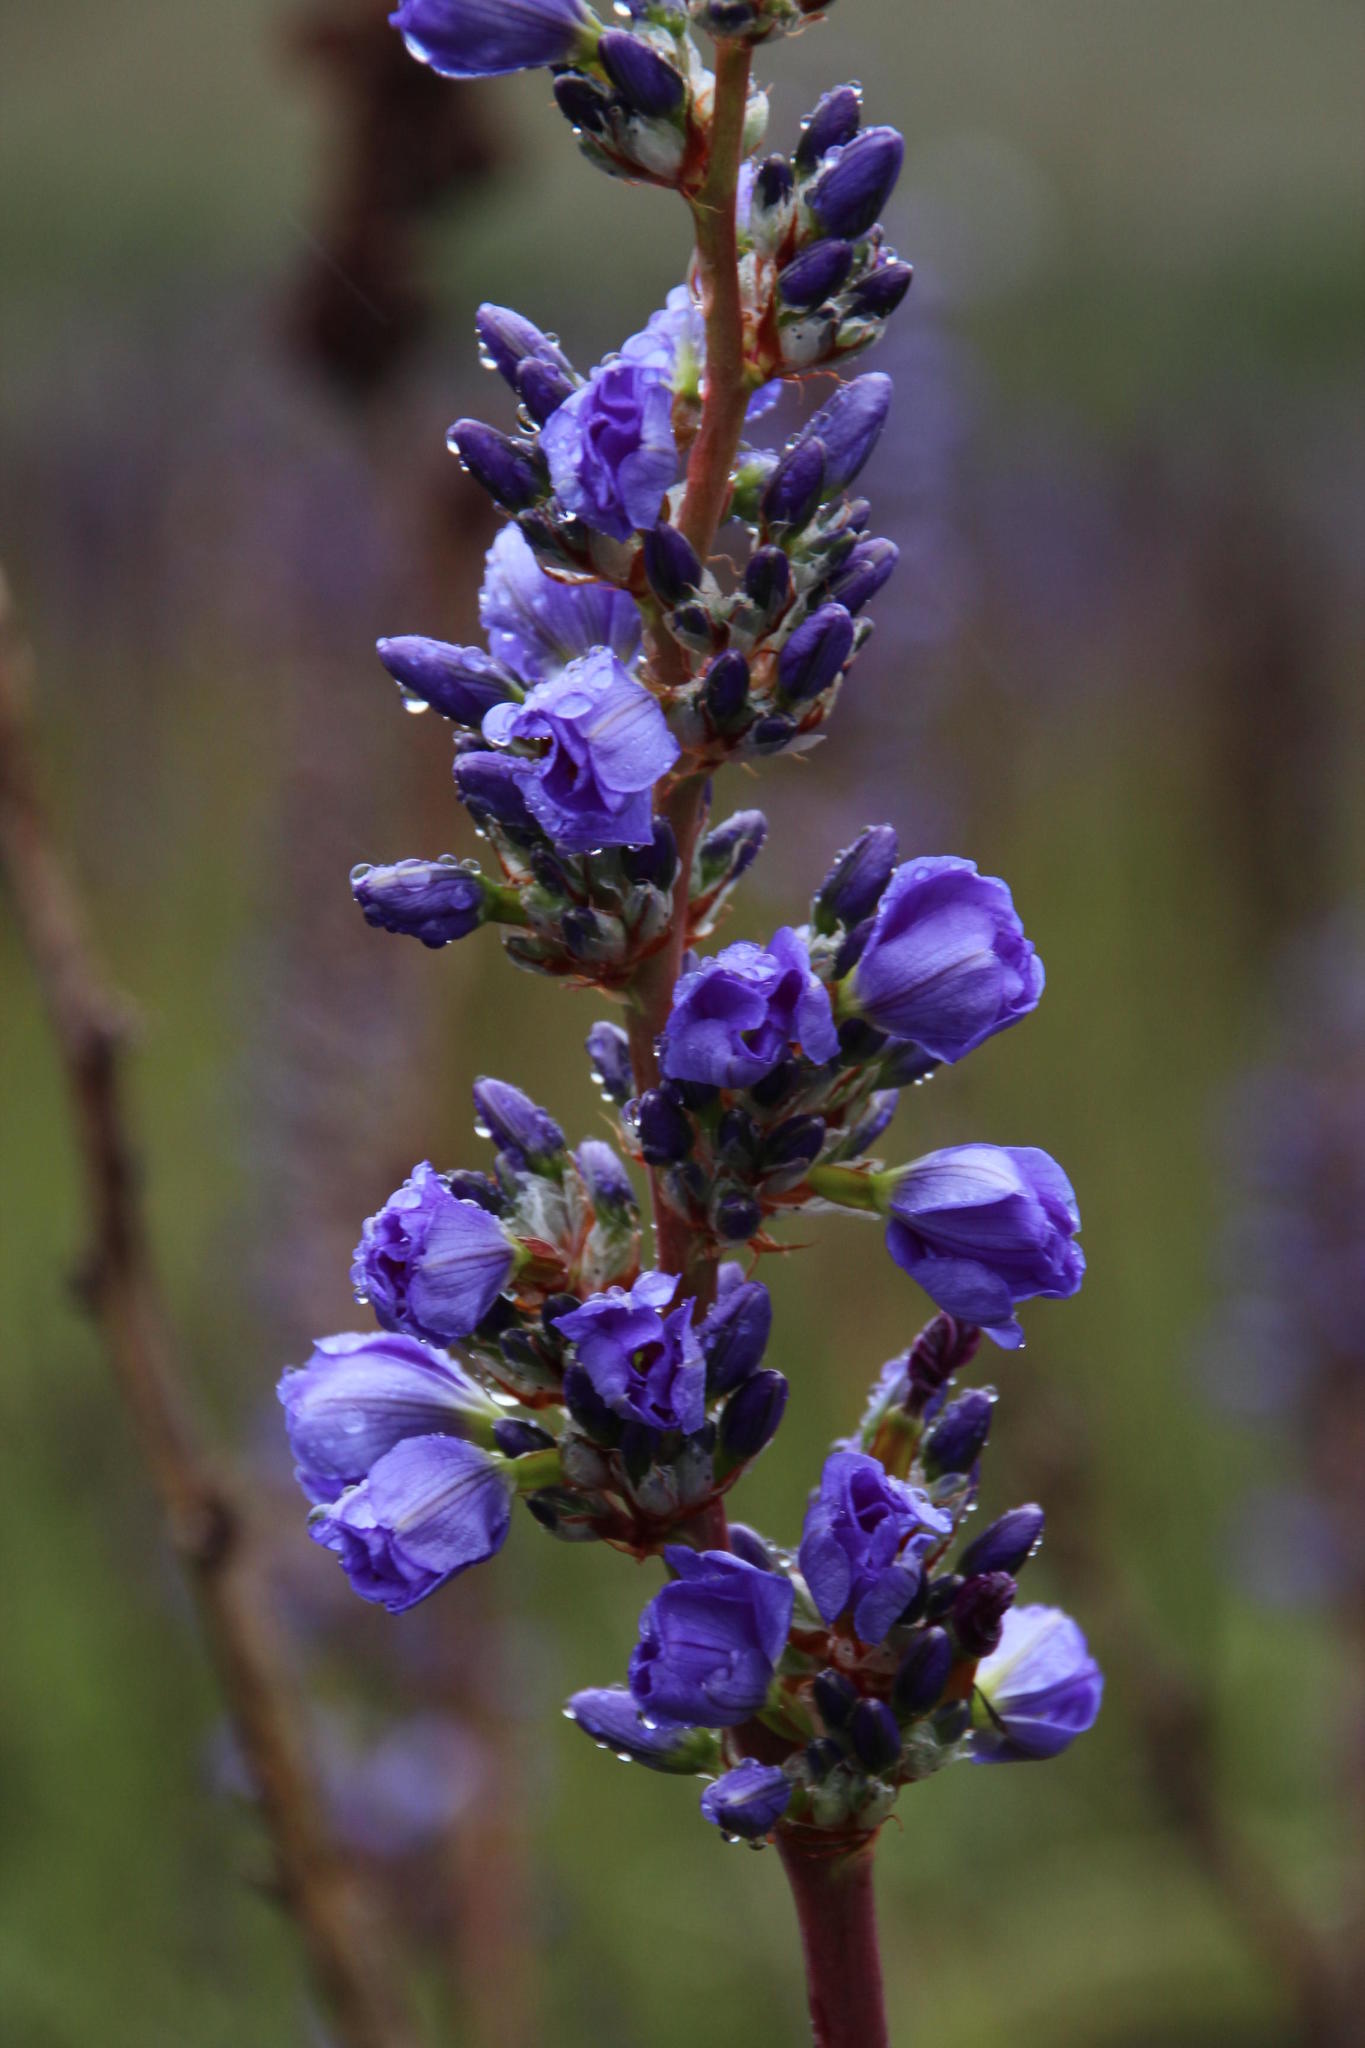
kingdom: Plantae
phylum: Tracheophyta
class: Liliopsida
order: Asparagales
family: Iridaceae
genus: Aristea
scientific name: Aristea bakeri
